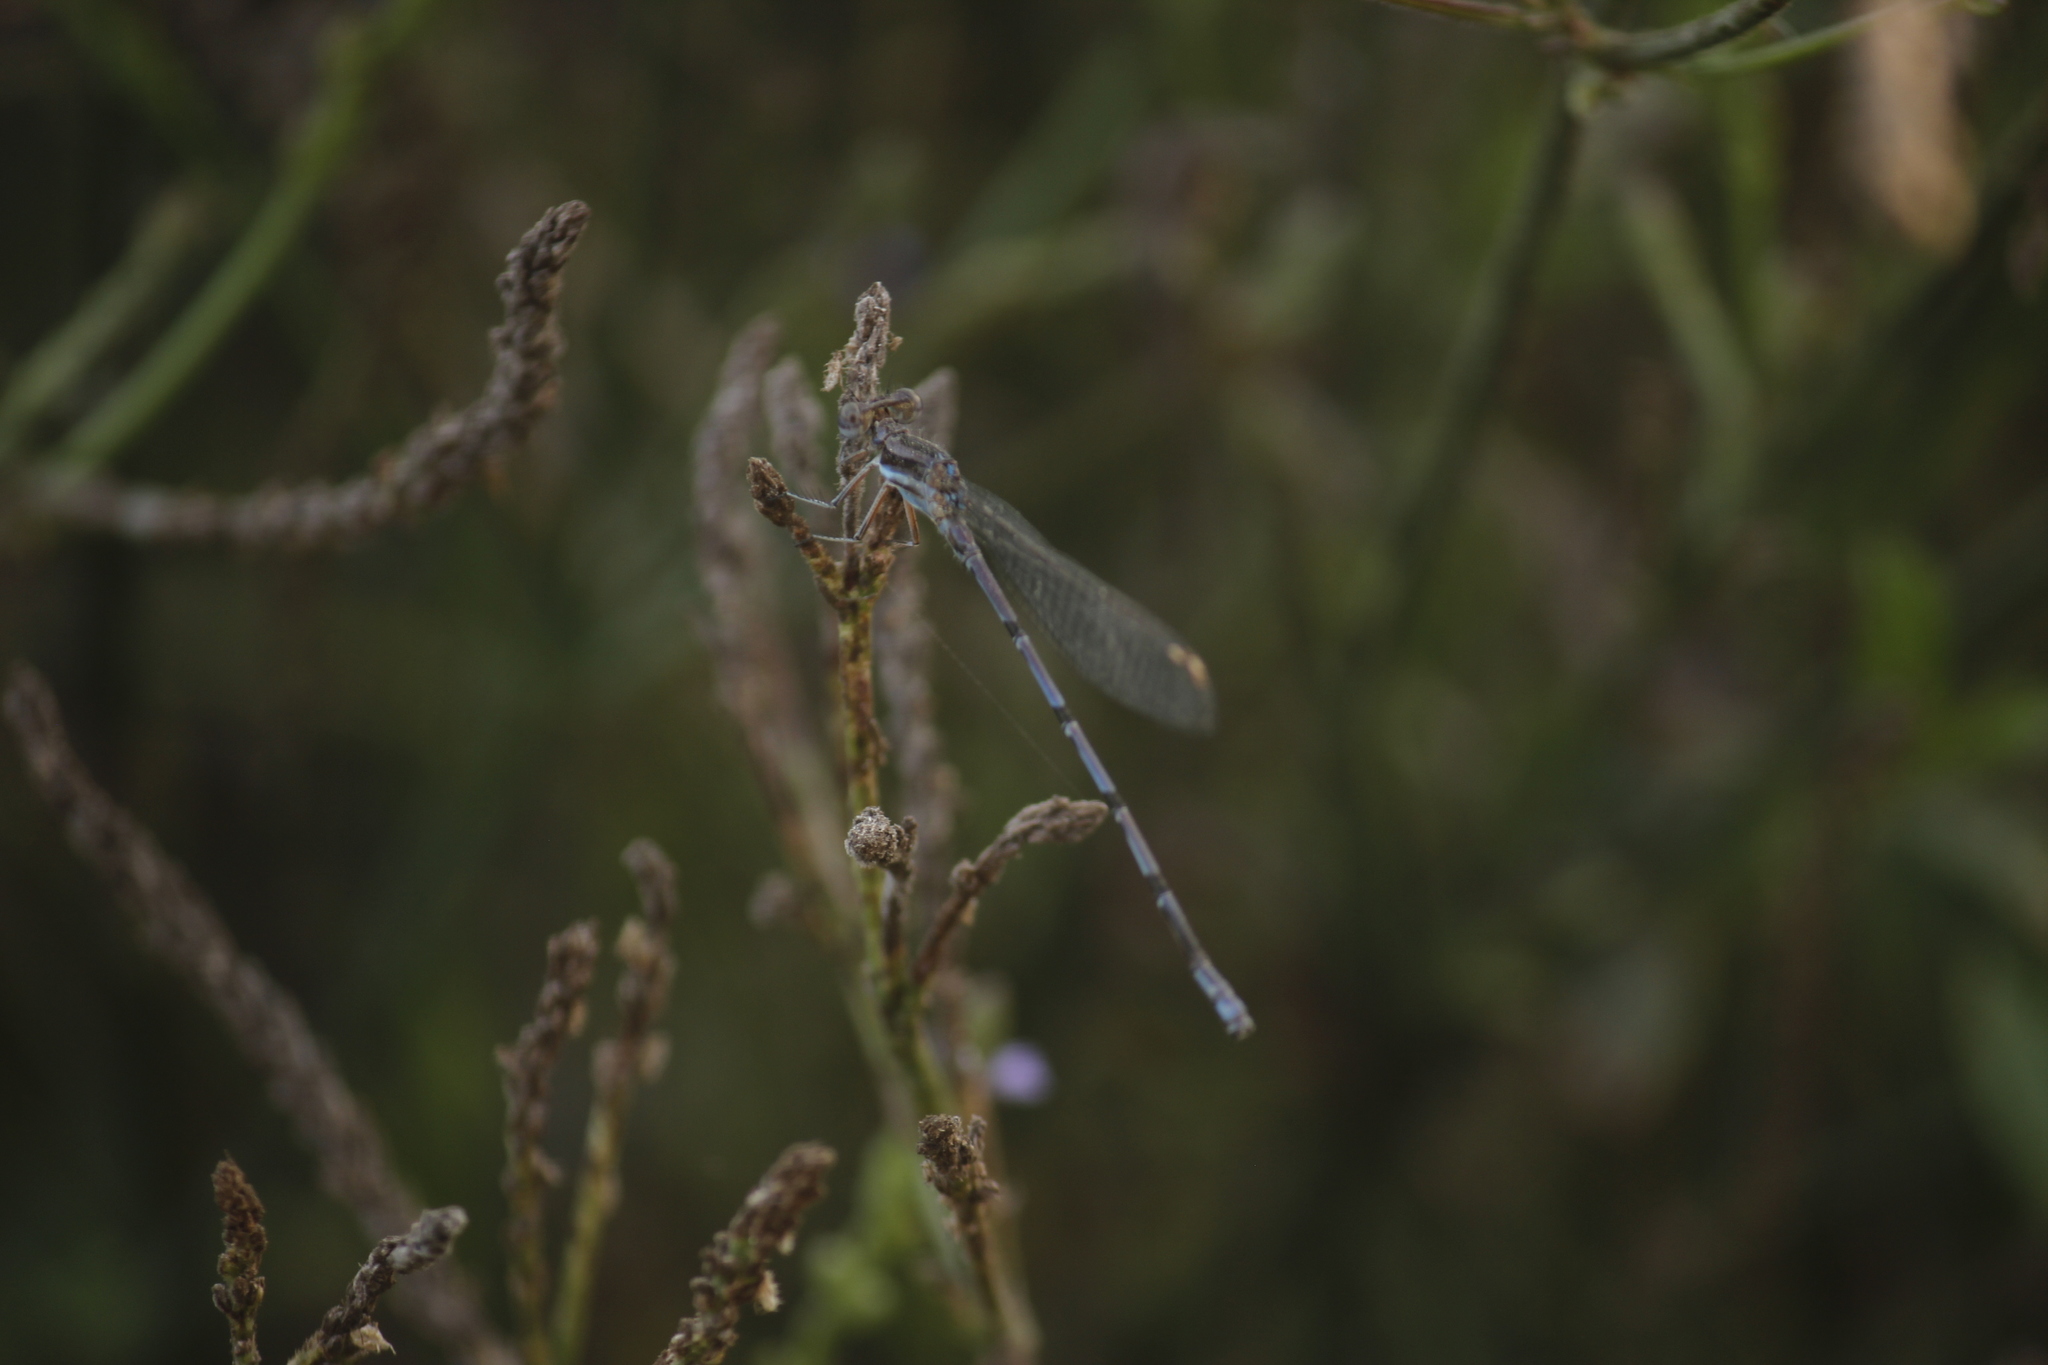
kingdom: Animalia
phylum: Arthropoda
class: Insecta
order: Odonata
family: Coenagrionidae
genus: Argia
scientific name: Argia inculta
